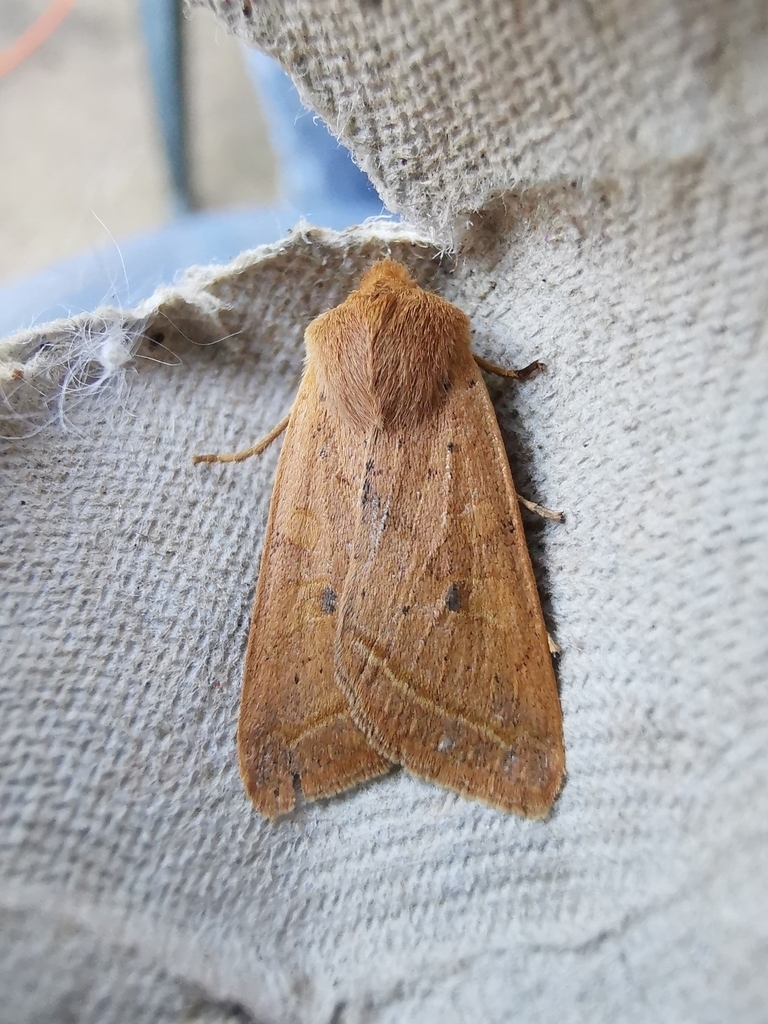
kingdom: Animalia
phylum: Arthropoda
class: Insecta
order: Lepidoptera
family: Noctuidae
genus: Agrochola
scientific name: Agrochola macilenta
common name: Yellow-line quaker
